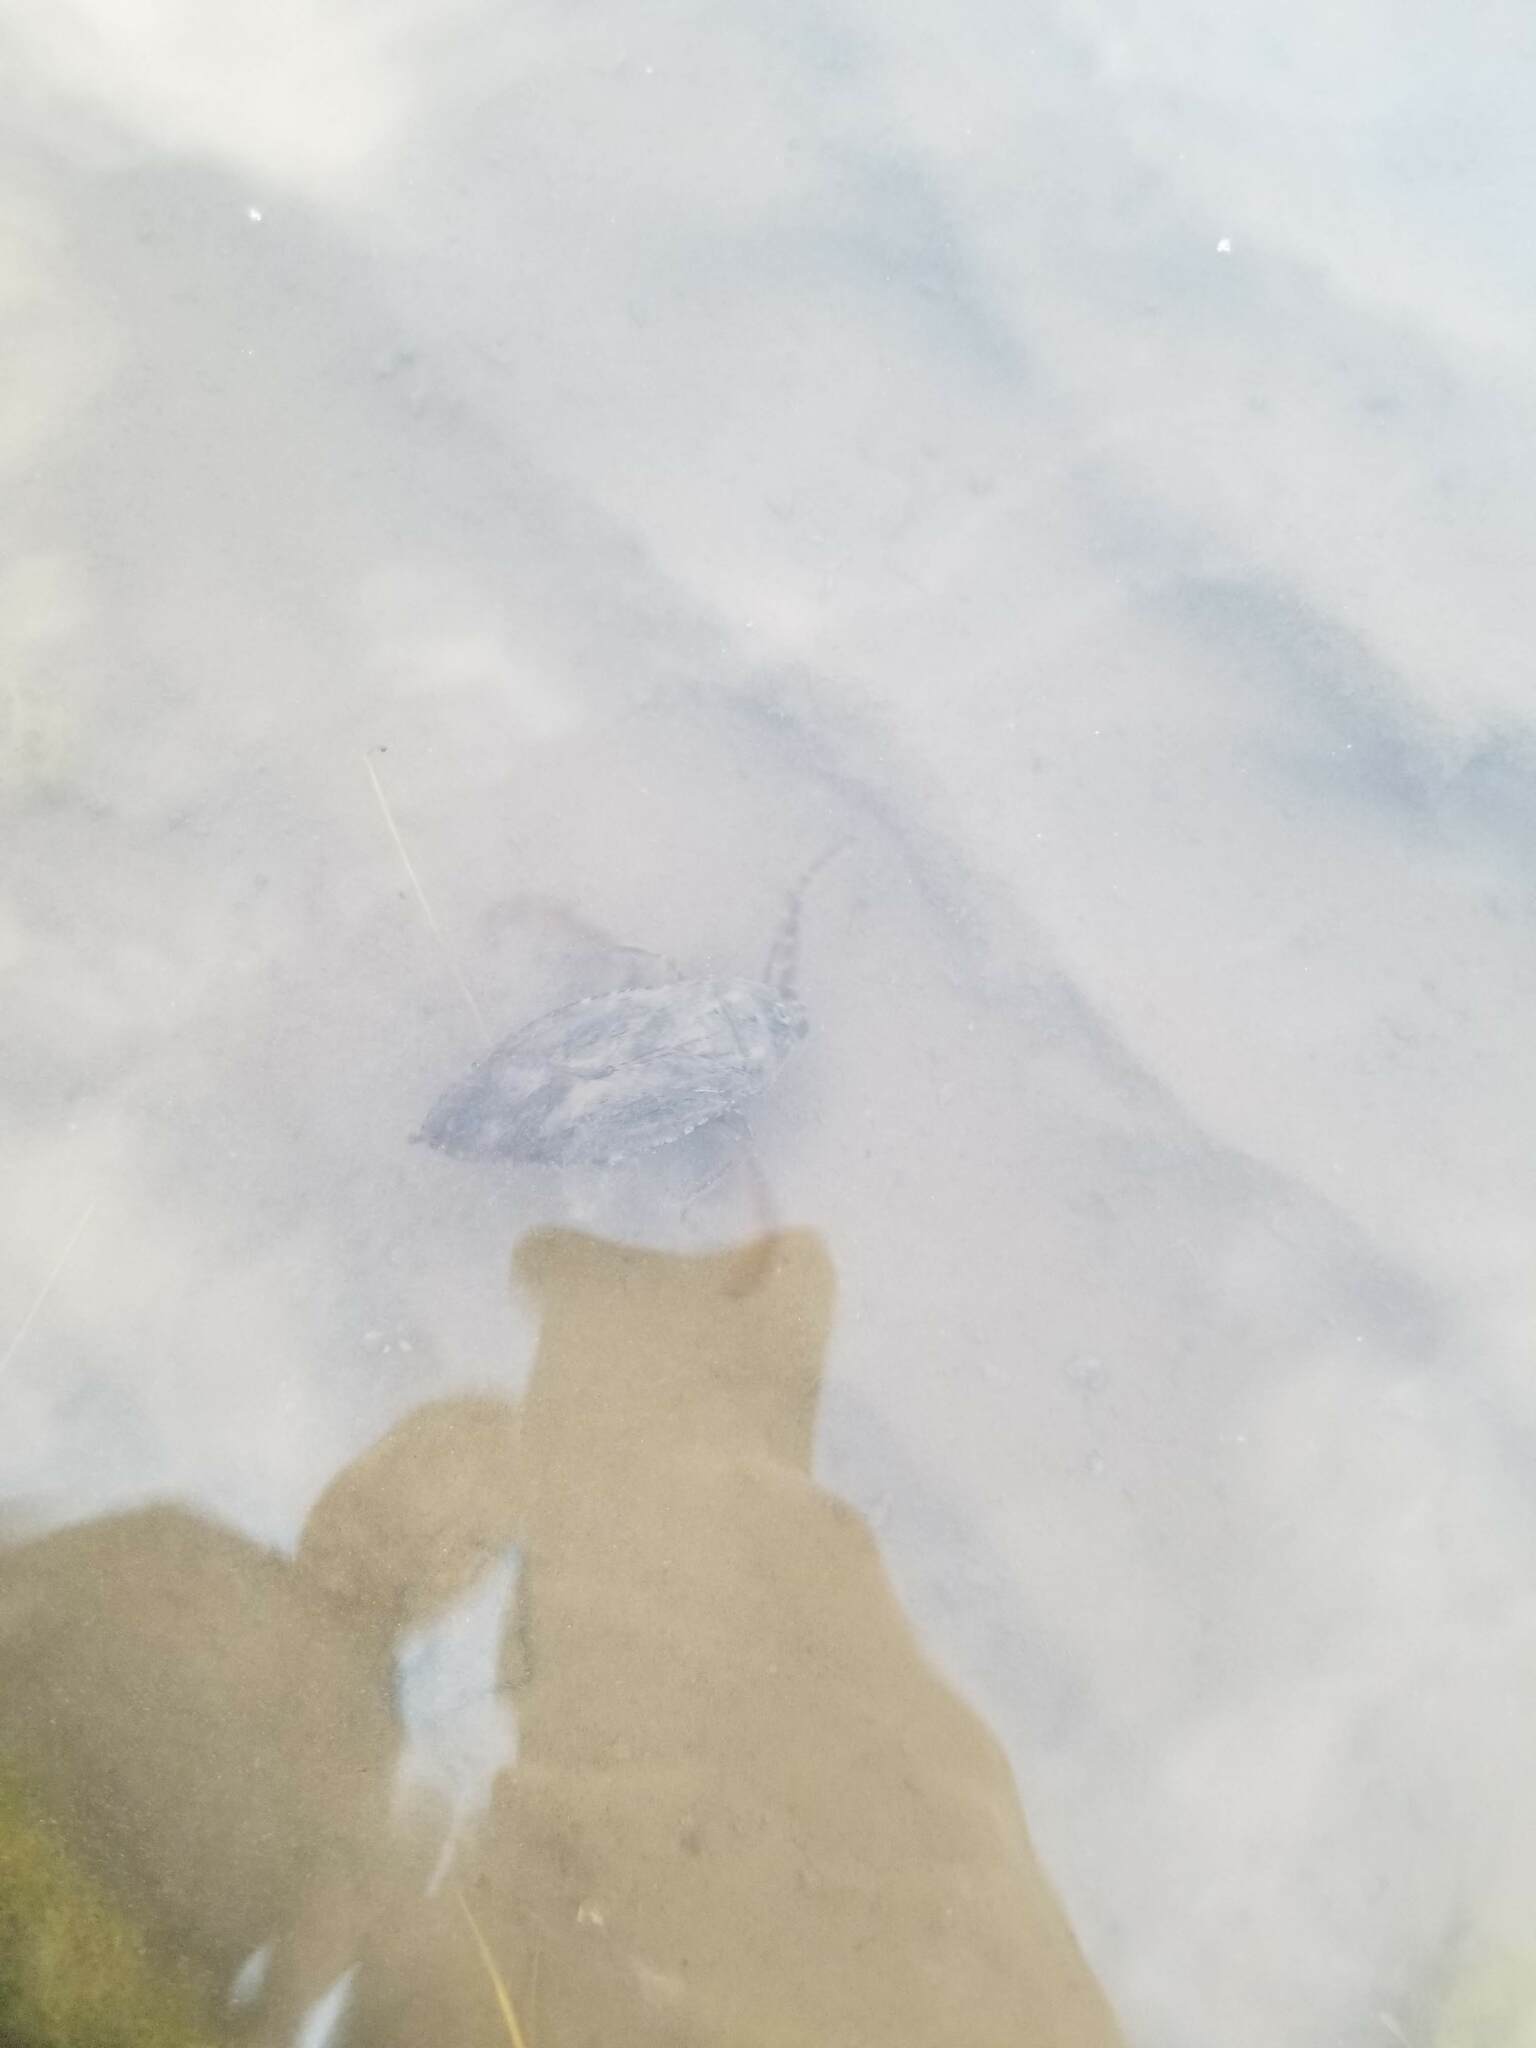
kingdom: Animalia
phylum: Arthropoda
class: Insecta
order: Hemiptera
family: Belostomatidae
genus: Lethocerus
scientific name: Lethocerus americanus
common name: Giant water bug
